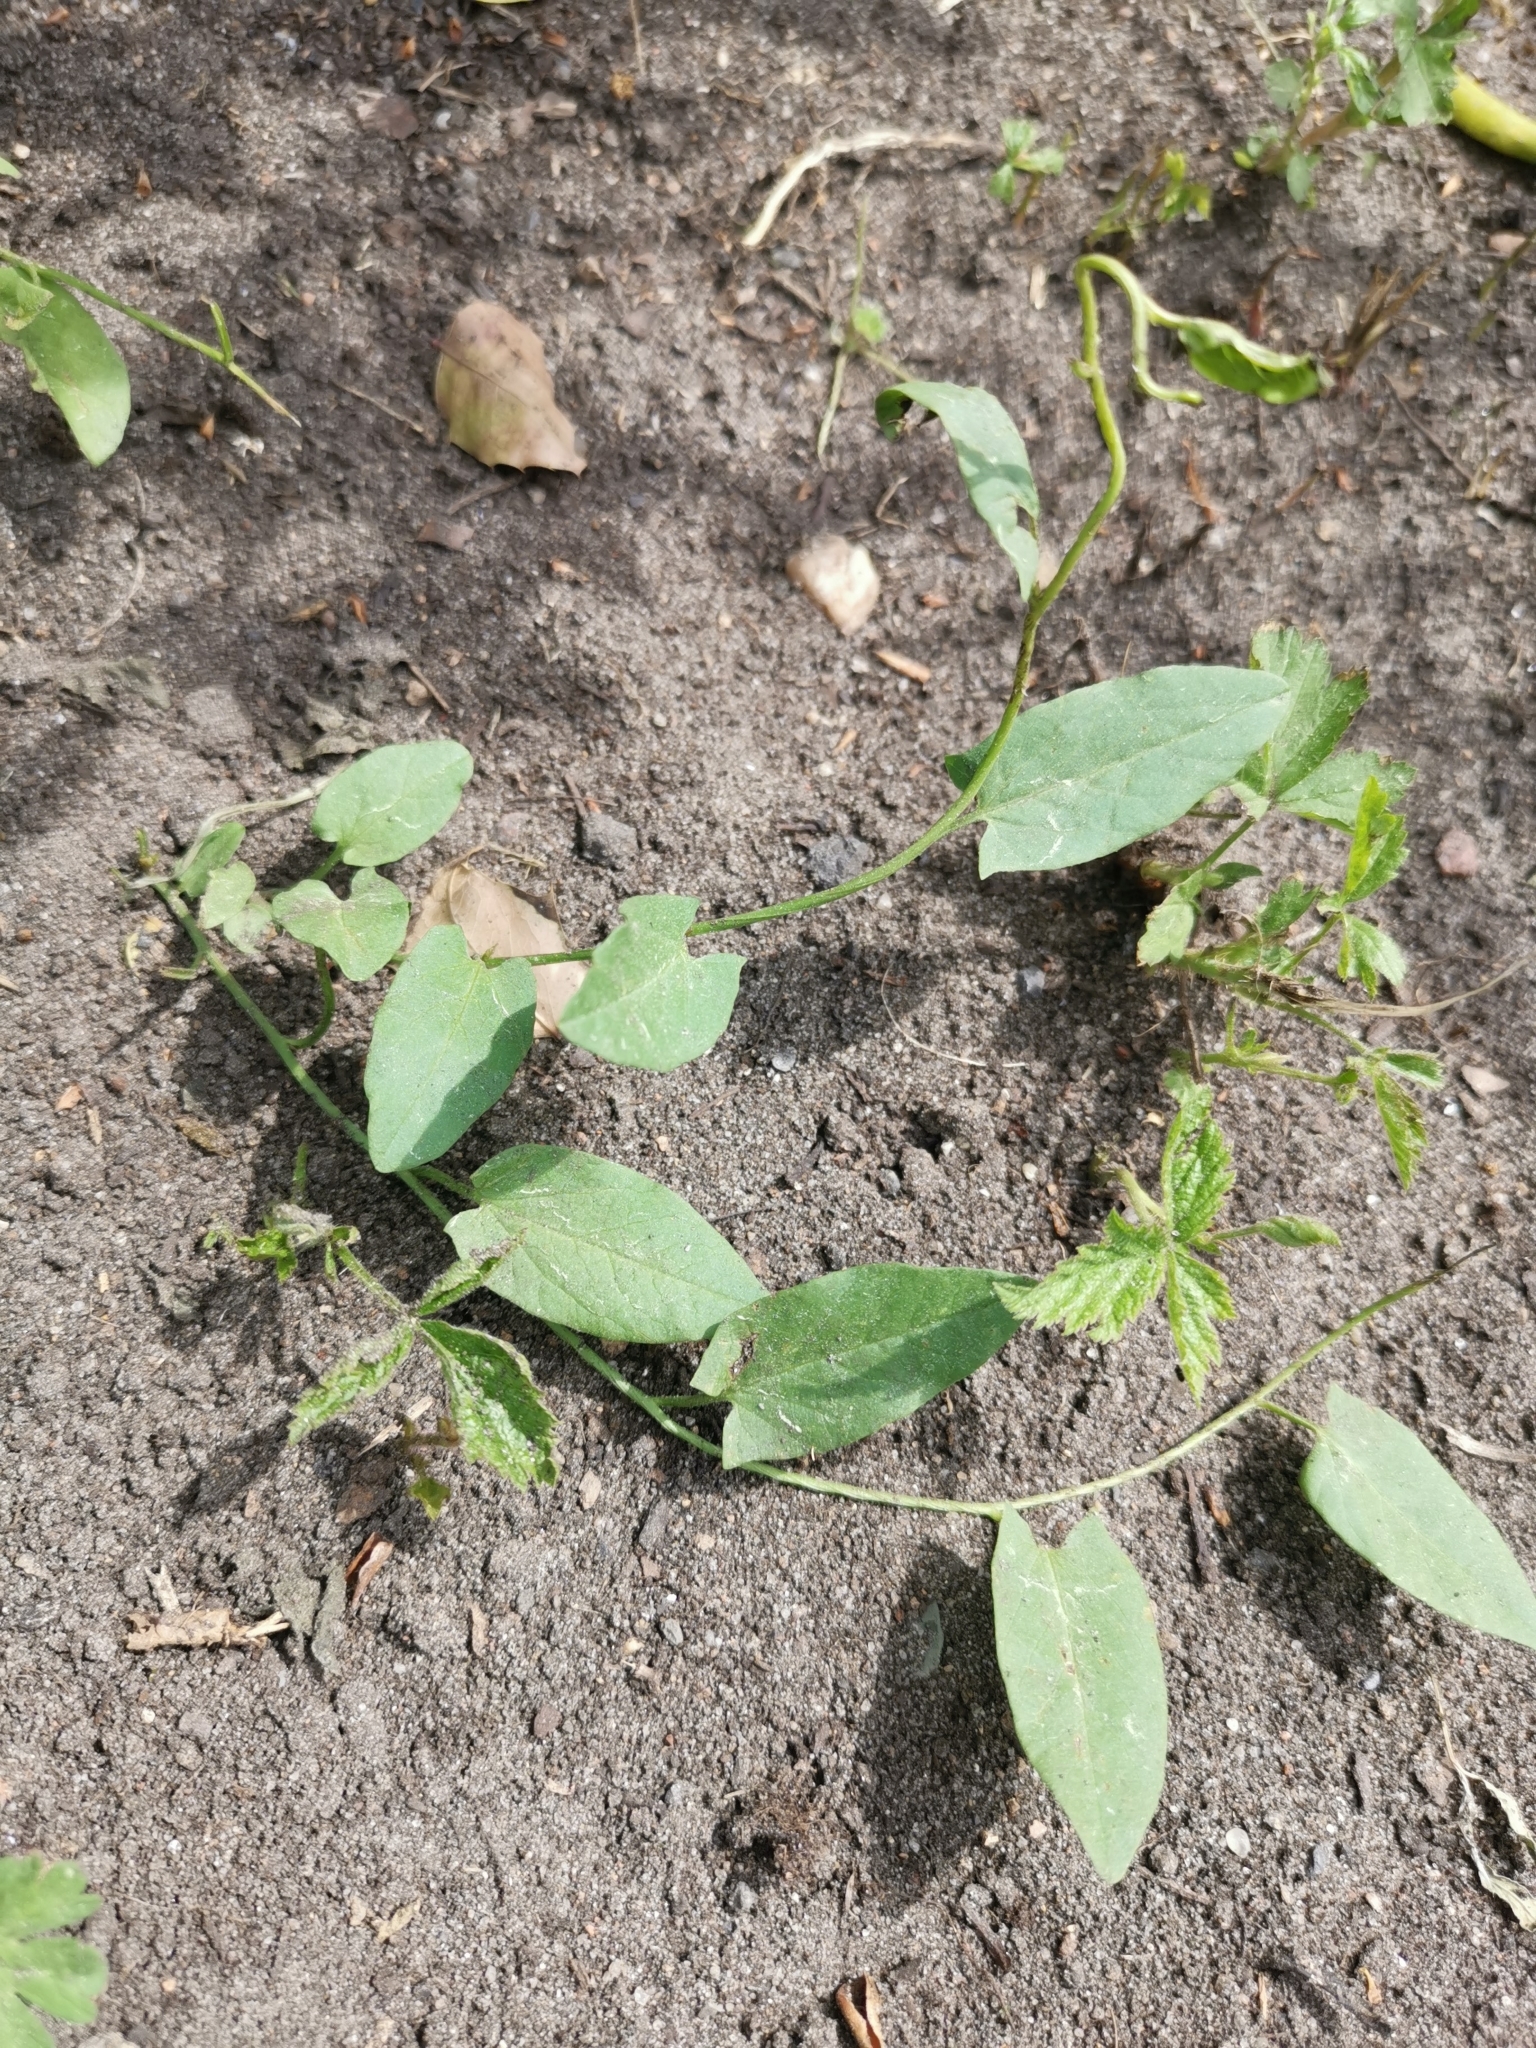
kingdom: Plantae
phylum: Tracheophyta
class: Magnoliopsida
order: Solanales
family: Convolvulaceae
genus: Convolvulus
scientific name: Convolvulus arvensis
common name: Field bindweed
